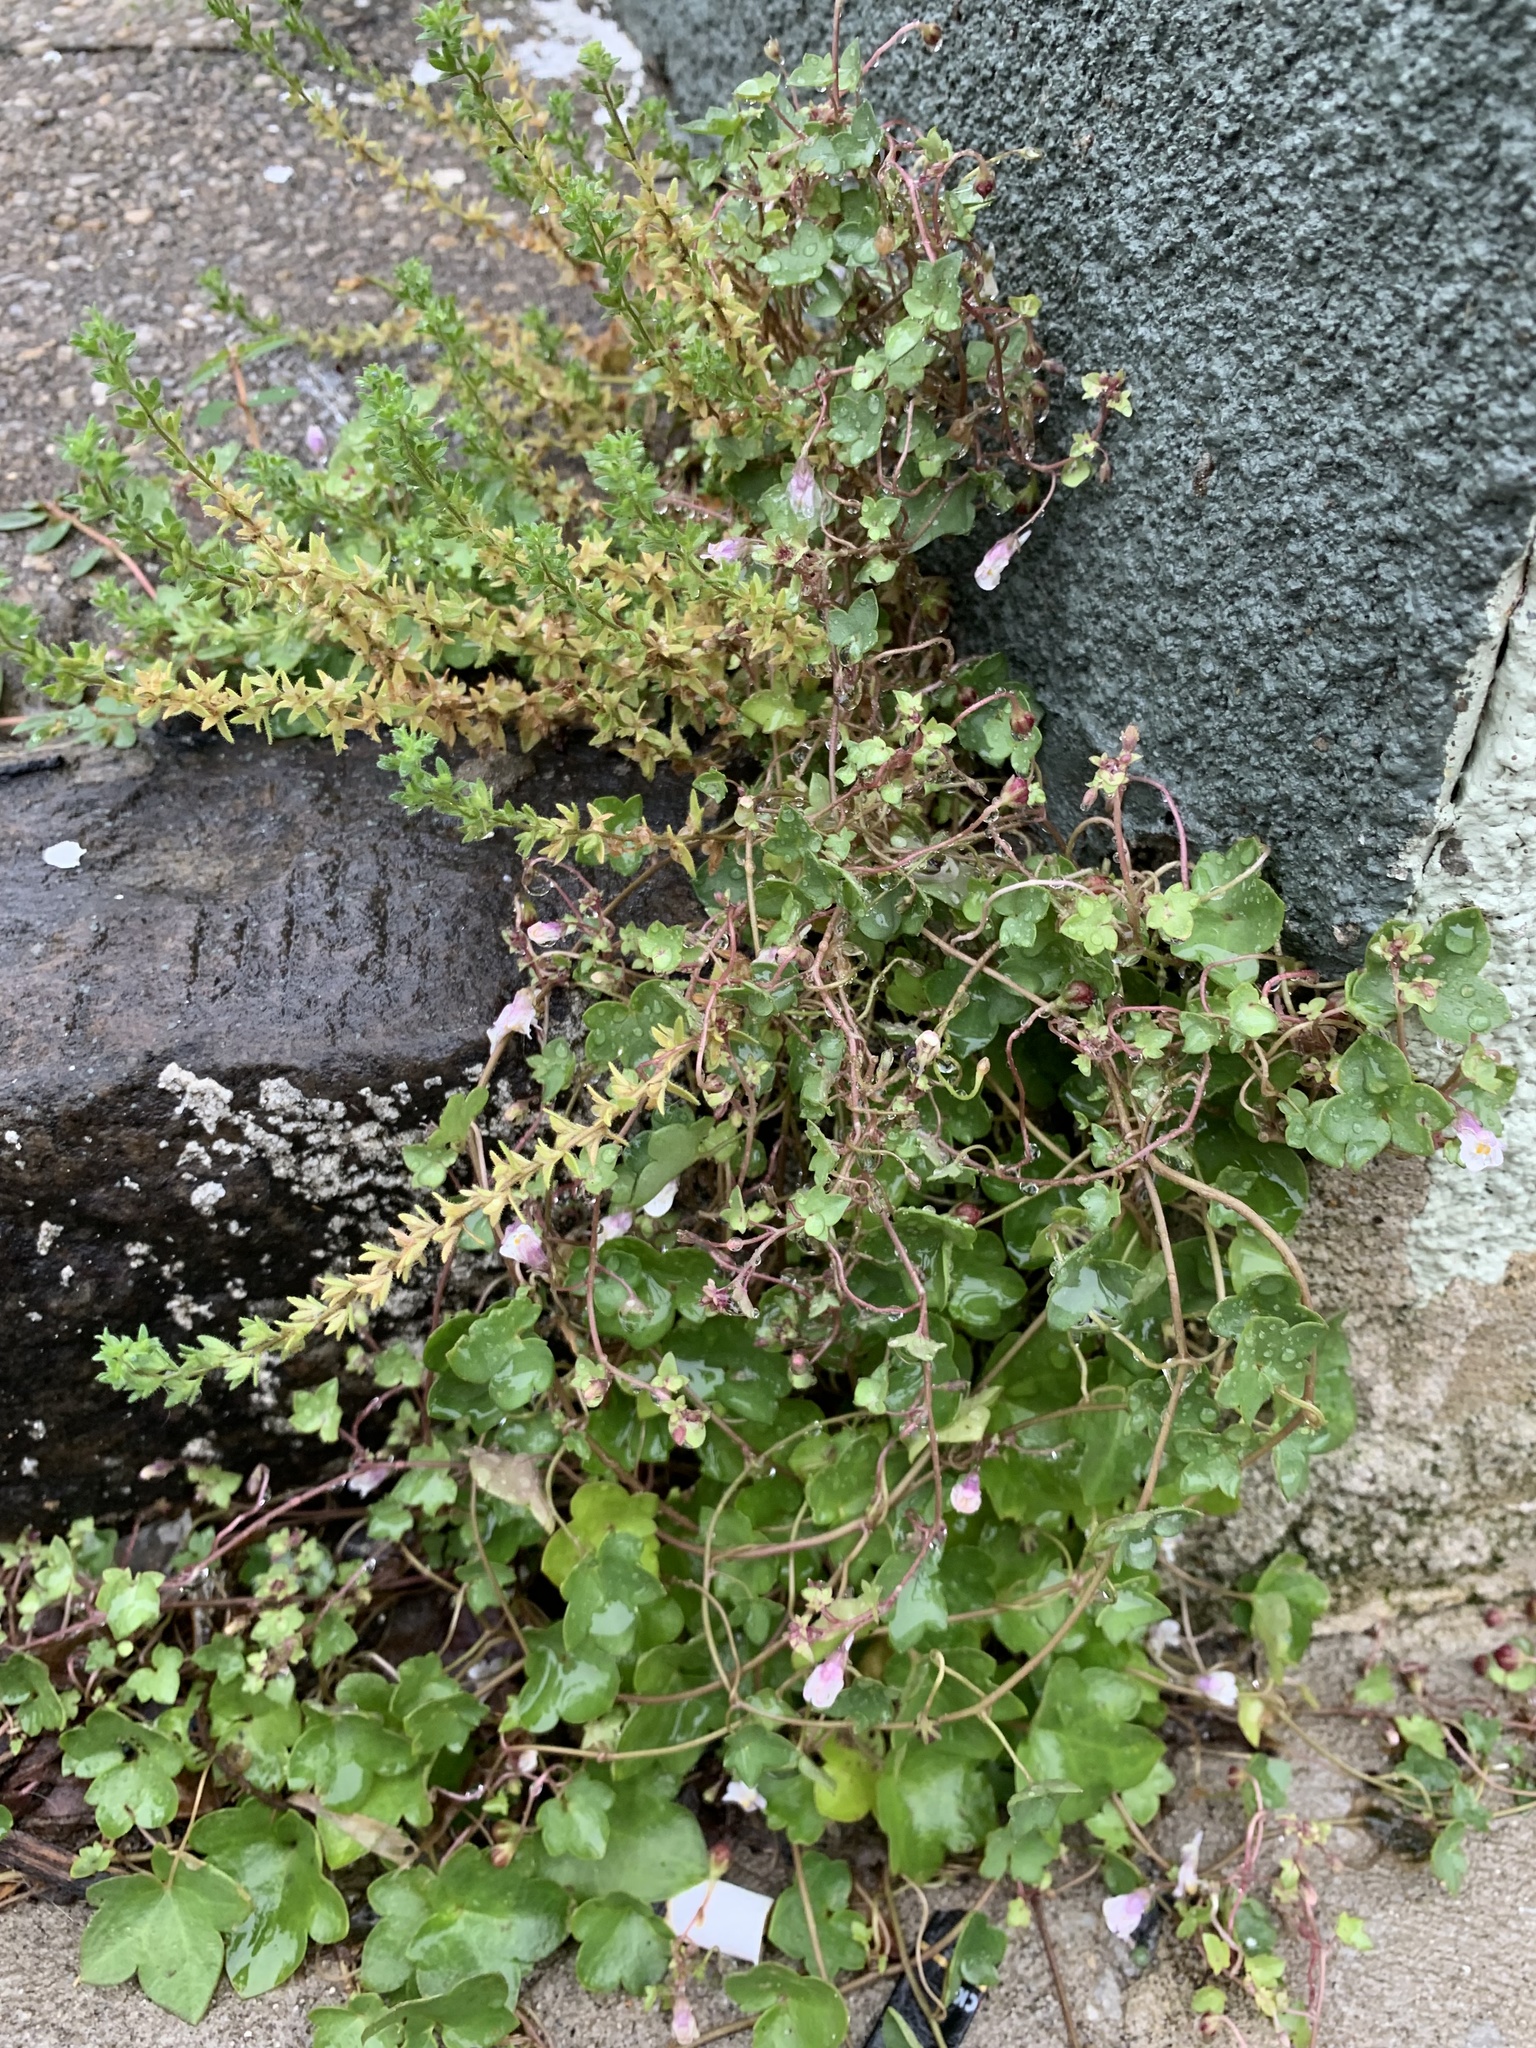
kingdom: Plantae
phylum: Tracheophyta
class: Magnoliopsida
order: Lamiales
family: Plantaginaceae
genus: Cymbalaria
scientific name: Cymbalaria muralis
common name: Ivy-leaved toadflax
